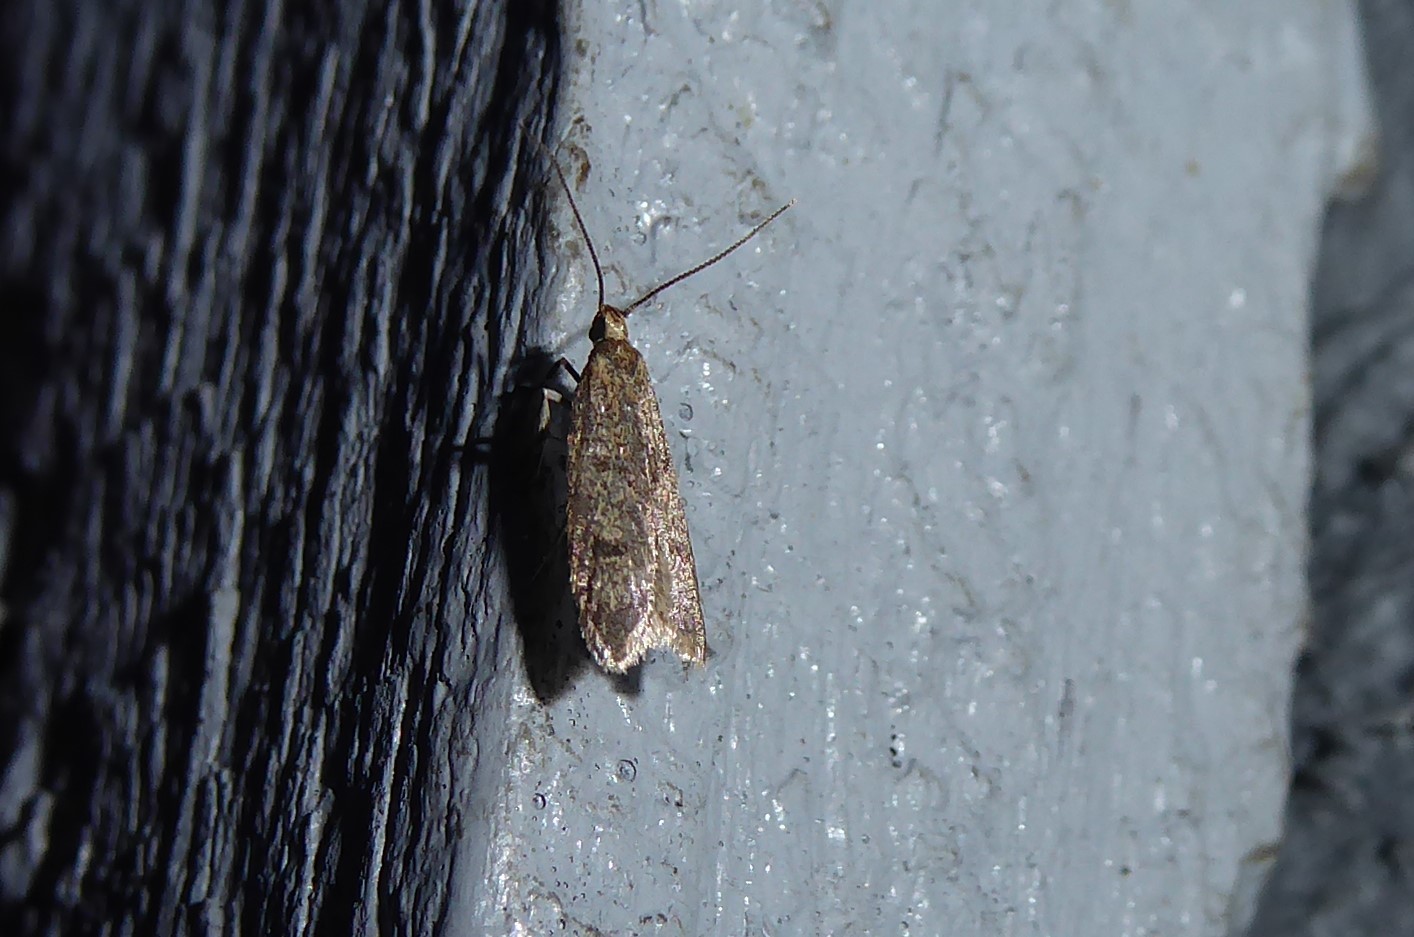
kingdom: Animalia
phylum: Arthropoda
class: Insecta
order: Lepidoptera
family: Oecophoridae
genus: Gymnobathra
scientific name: Gymnobathra tholodella
